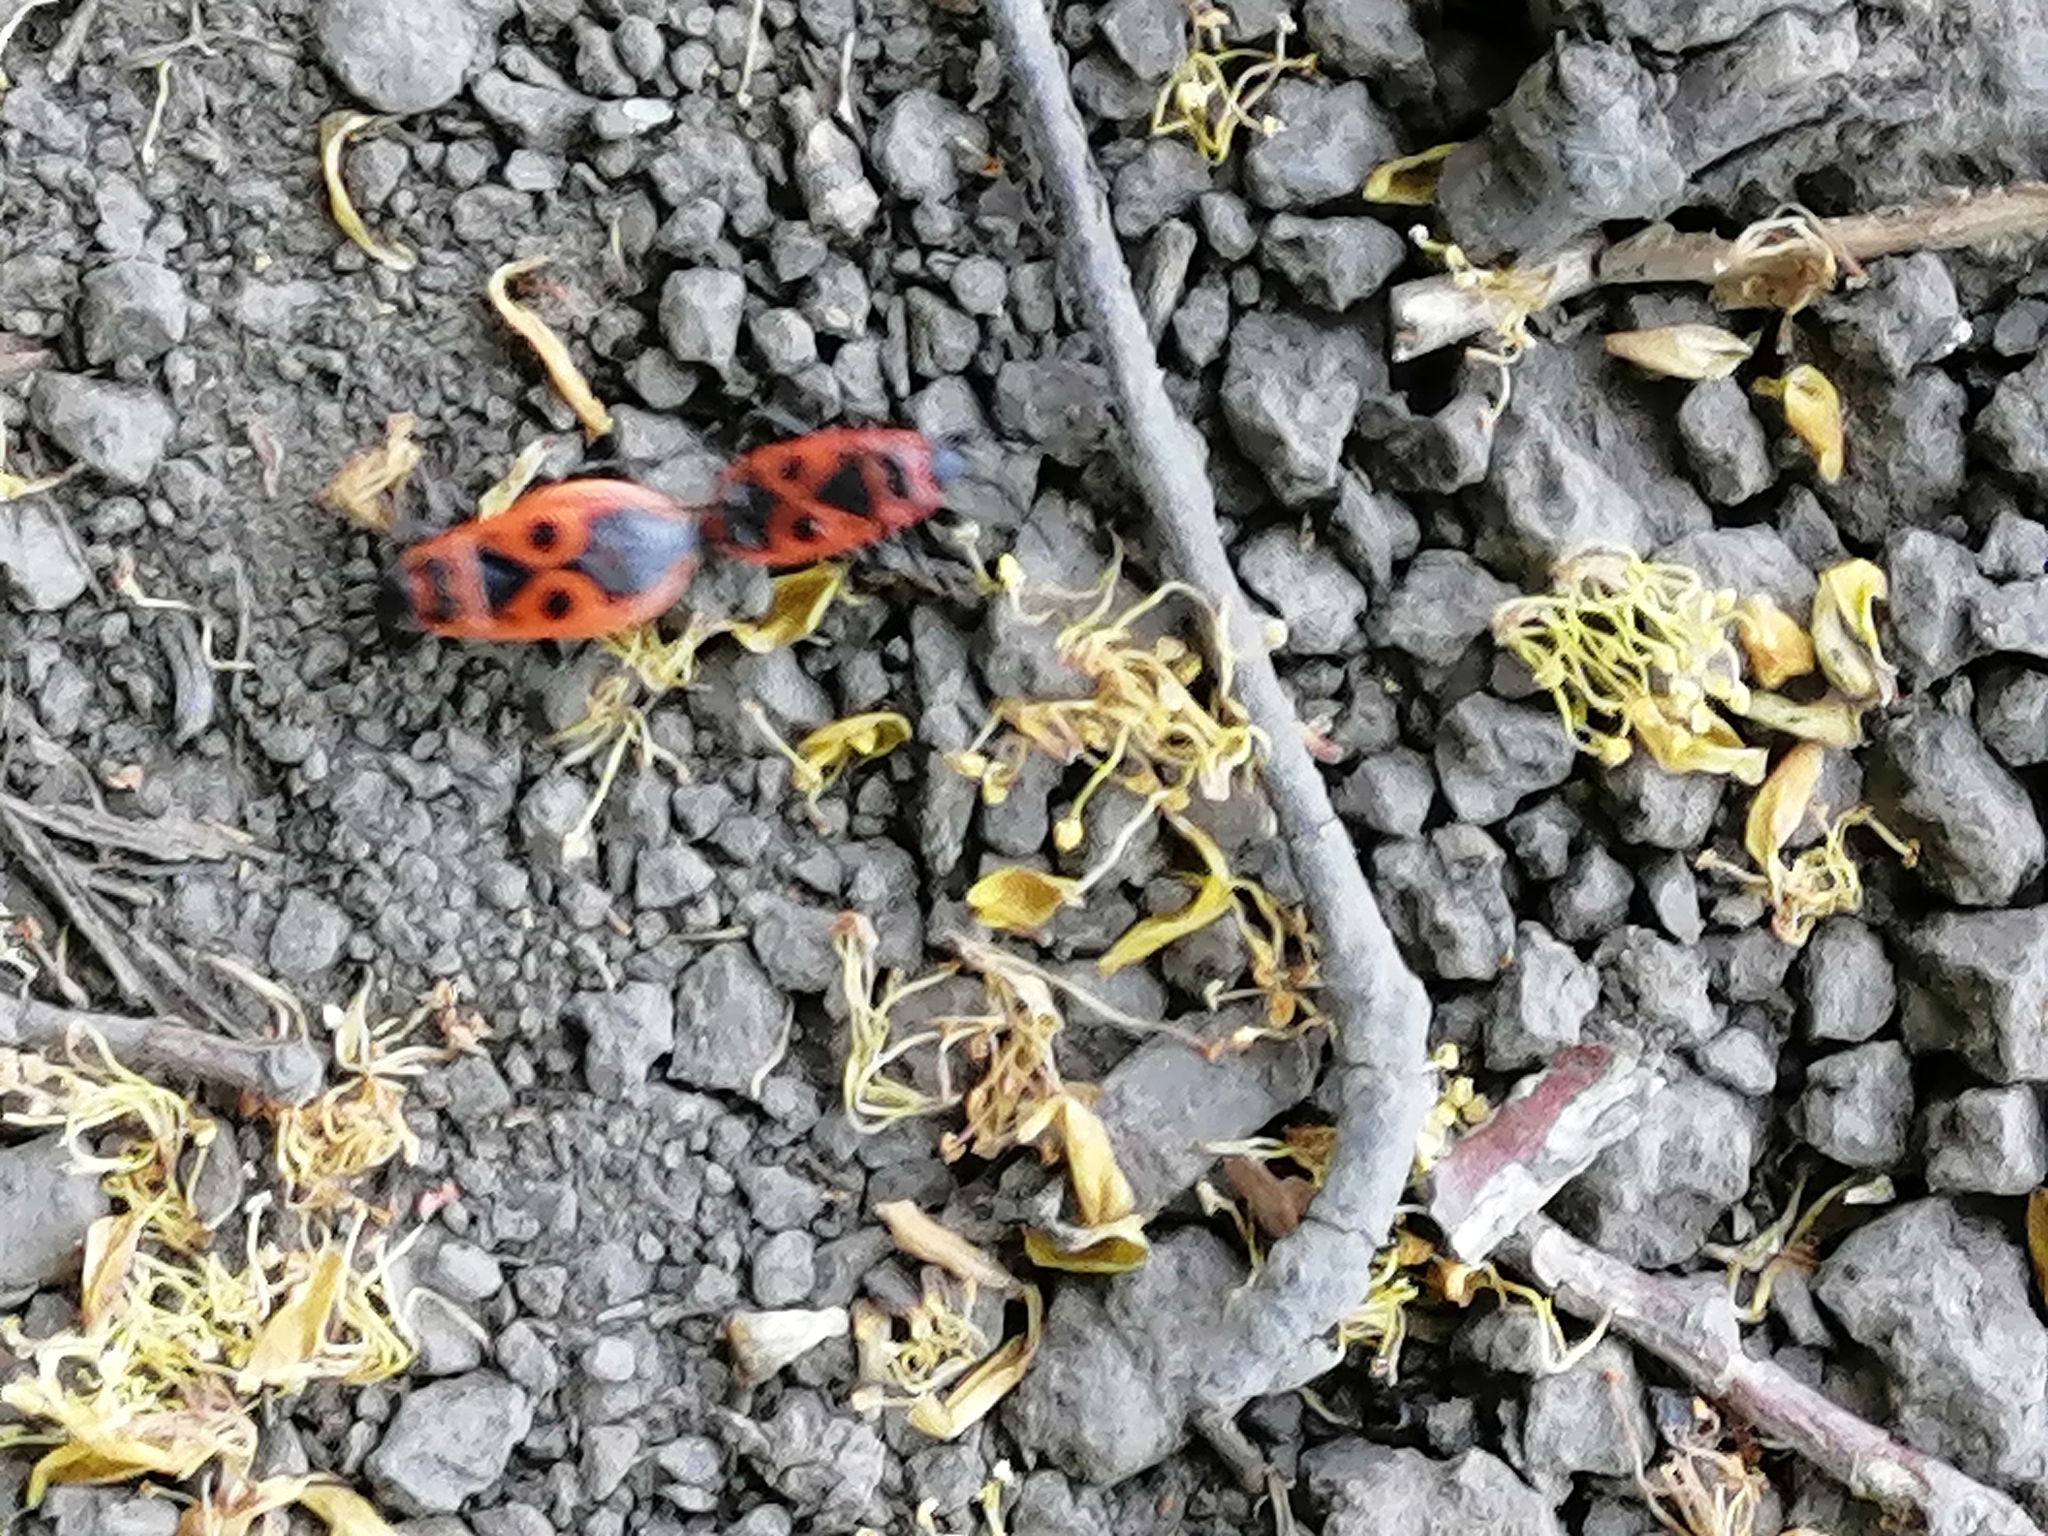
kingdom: Animalia
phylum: Arthropoda
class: Insecta
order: Hemiptera
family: Pyrrhocoridae
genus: Pyrrhocoris
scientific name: Pyrrhocoris apterus
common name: Firebug
